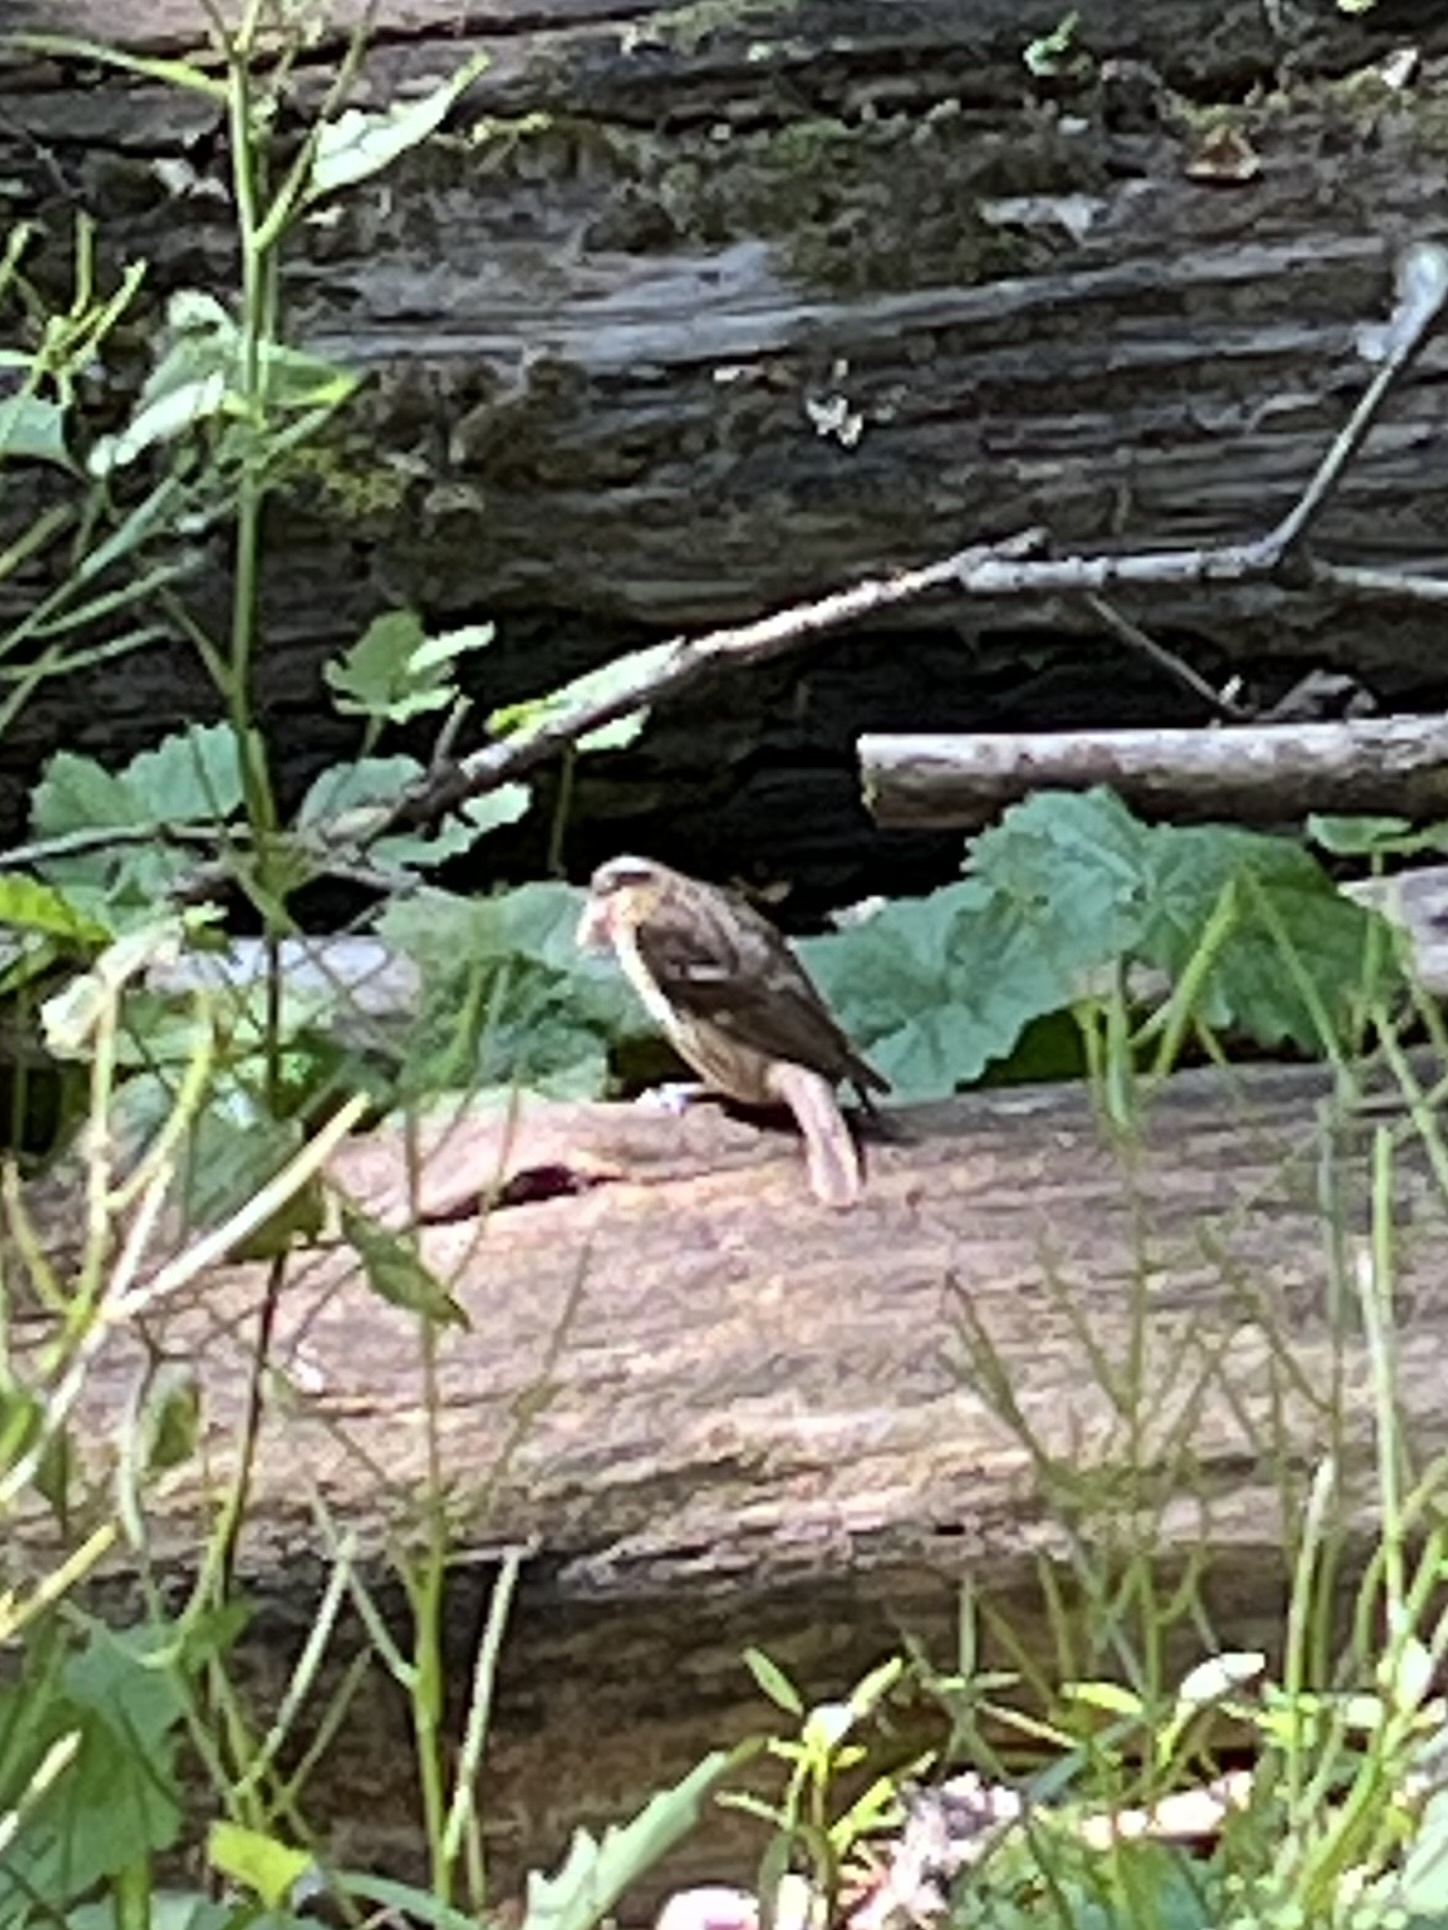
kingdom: Animalia
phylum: Chordata
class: Aves
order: Passeriformes
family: Cardinalidae
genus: Pheucticus
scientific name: Pheucticus ludovicianus
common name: Rose-breasted grosbeak
